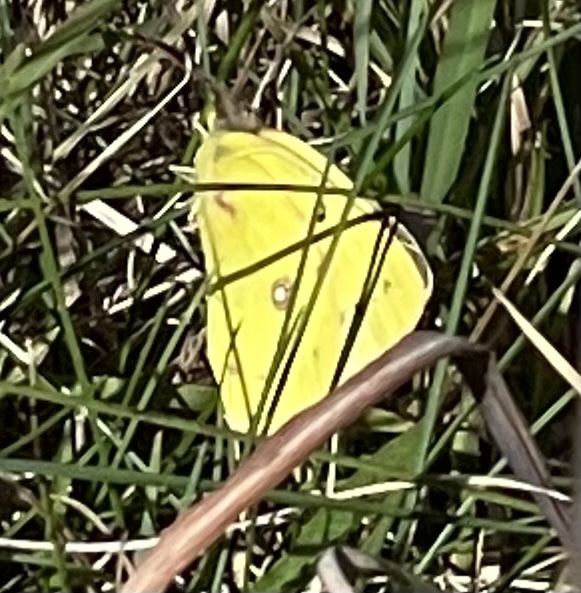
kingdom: Animalia
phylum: Arthropoda
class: Insecta
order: Lepidoptera
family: Pieridae
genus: Colias
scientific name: Colias eurytheme
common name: Alfalfa butterfly
